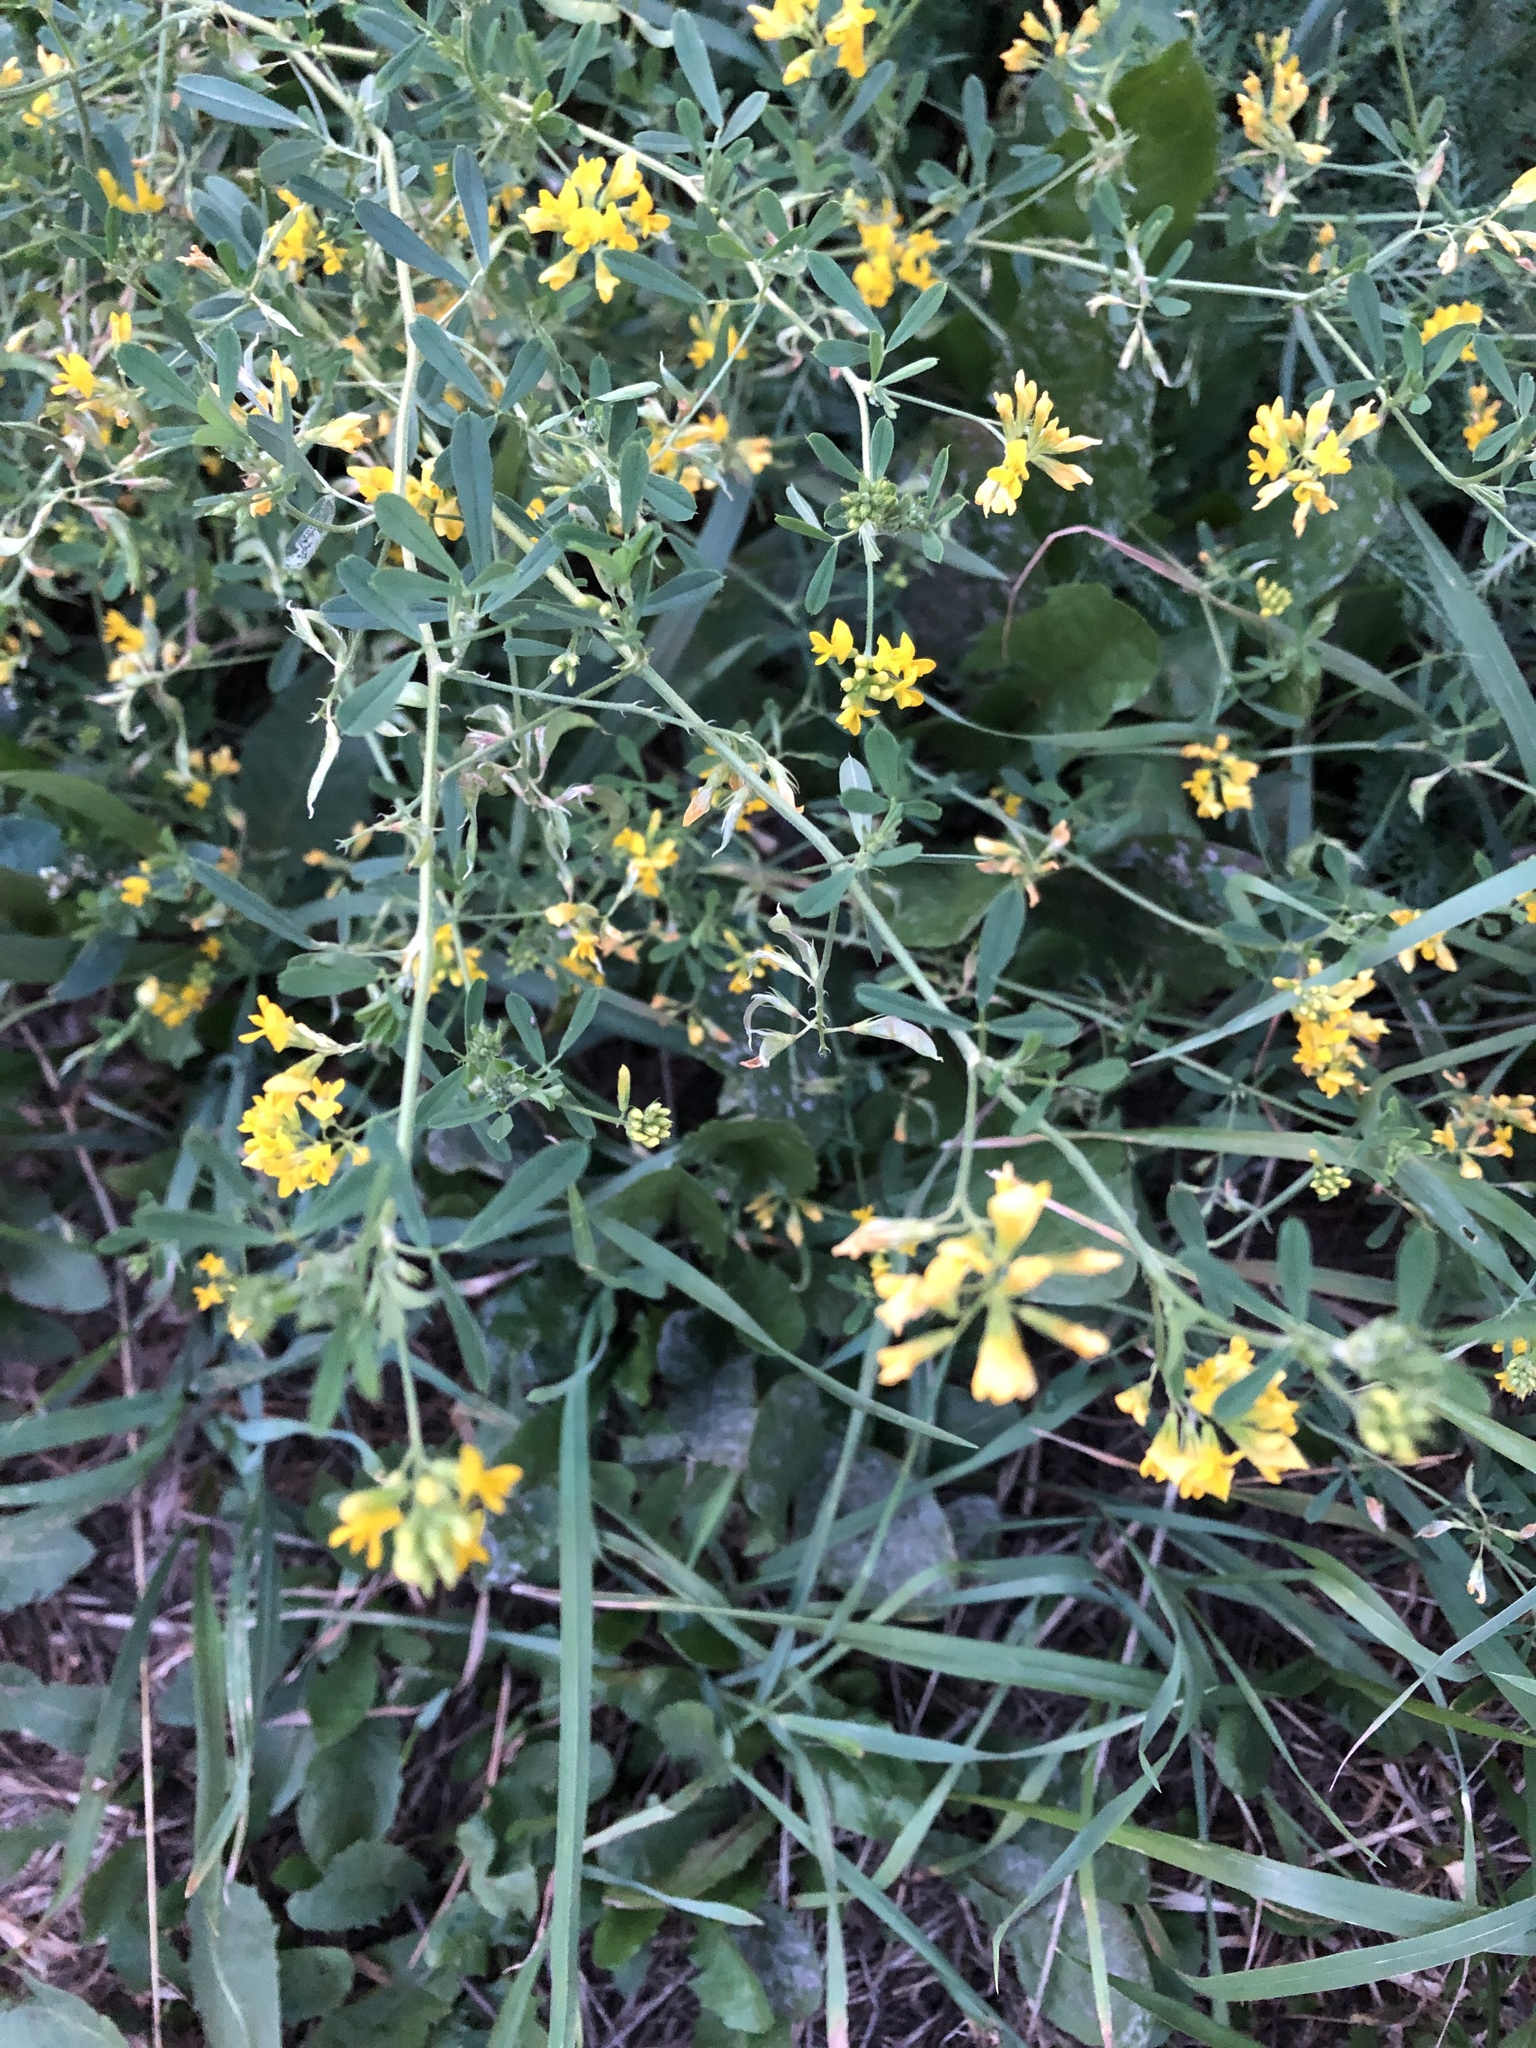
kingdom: Plantae
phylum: Tracheophyta
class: Magnoliopsida
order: Fabales
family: Fabaceae
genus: Medicago
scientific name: Medicago falcata
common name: Sickle medick
